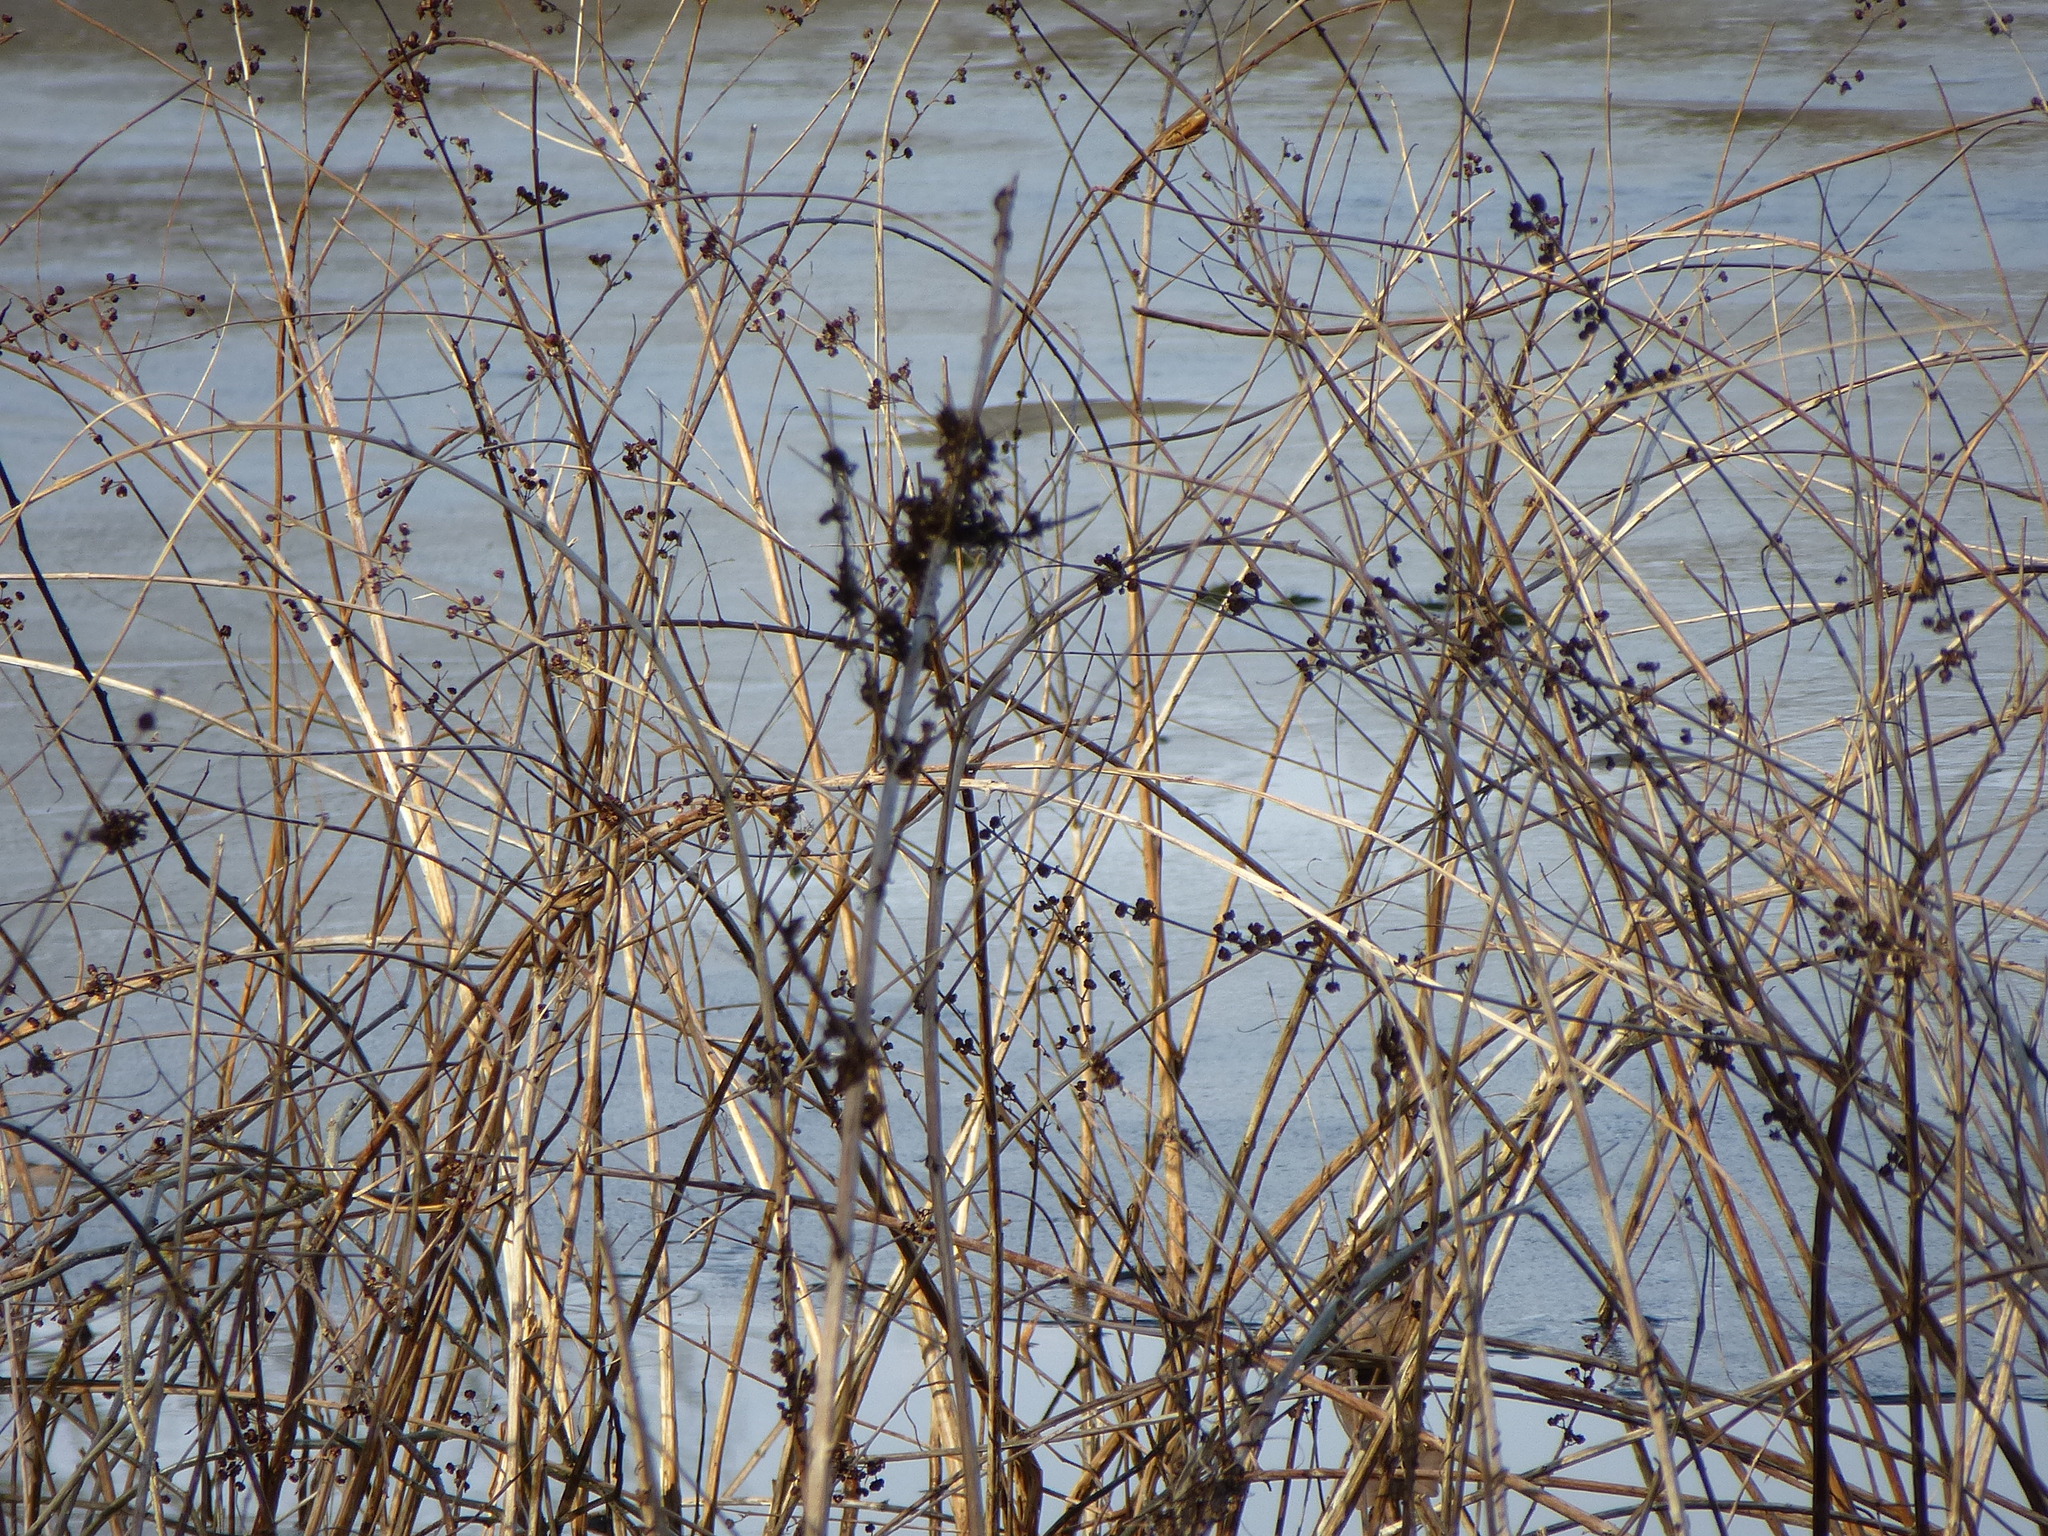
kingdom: Plantae
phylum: Tracheophyta
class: Magnoliopsida
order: Myrtales
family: Lythraceae
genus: Decodon
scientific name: Decodon verticillatus
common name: Hairy swamp loosestrife
